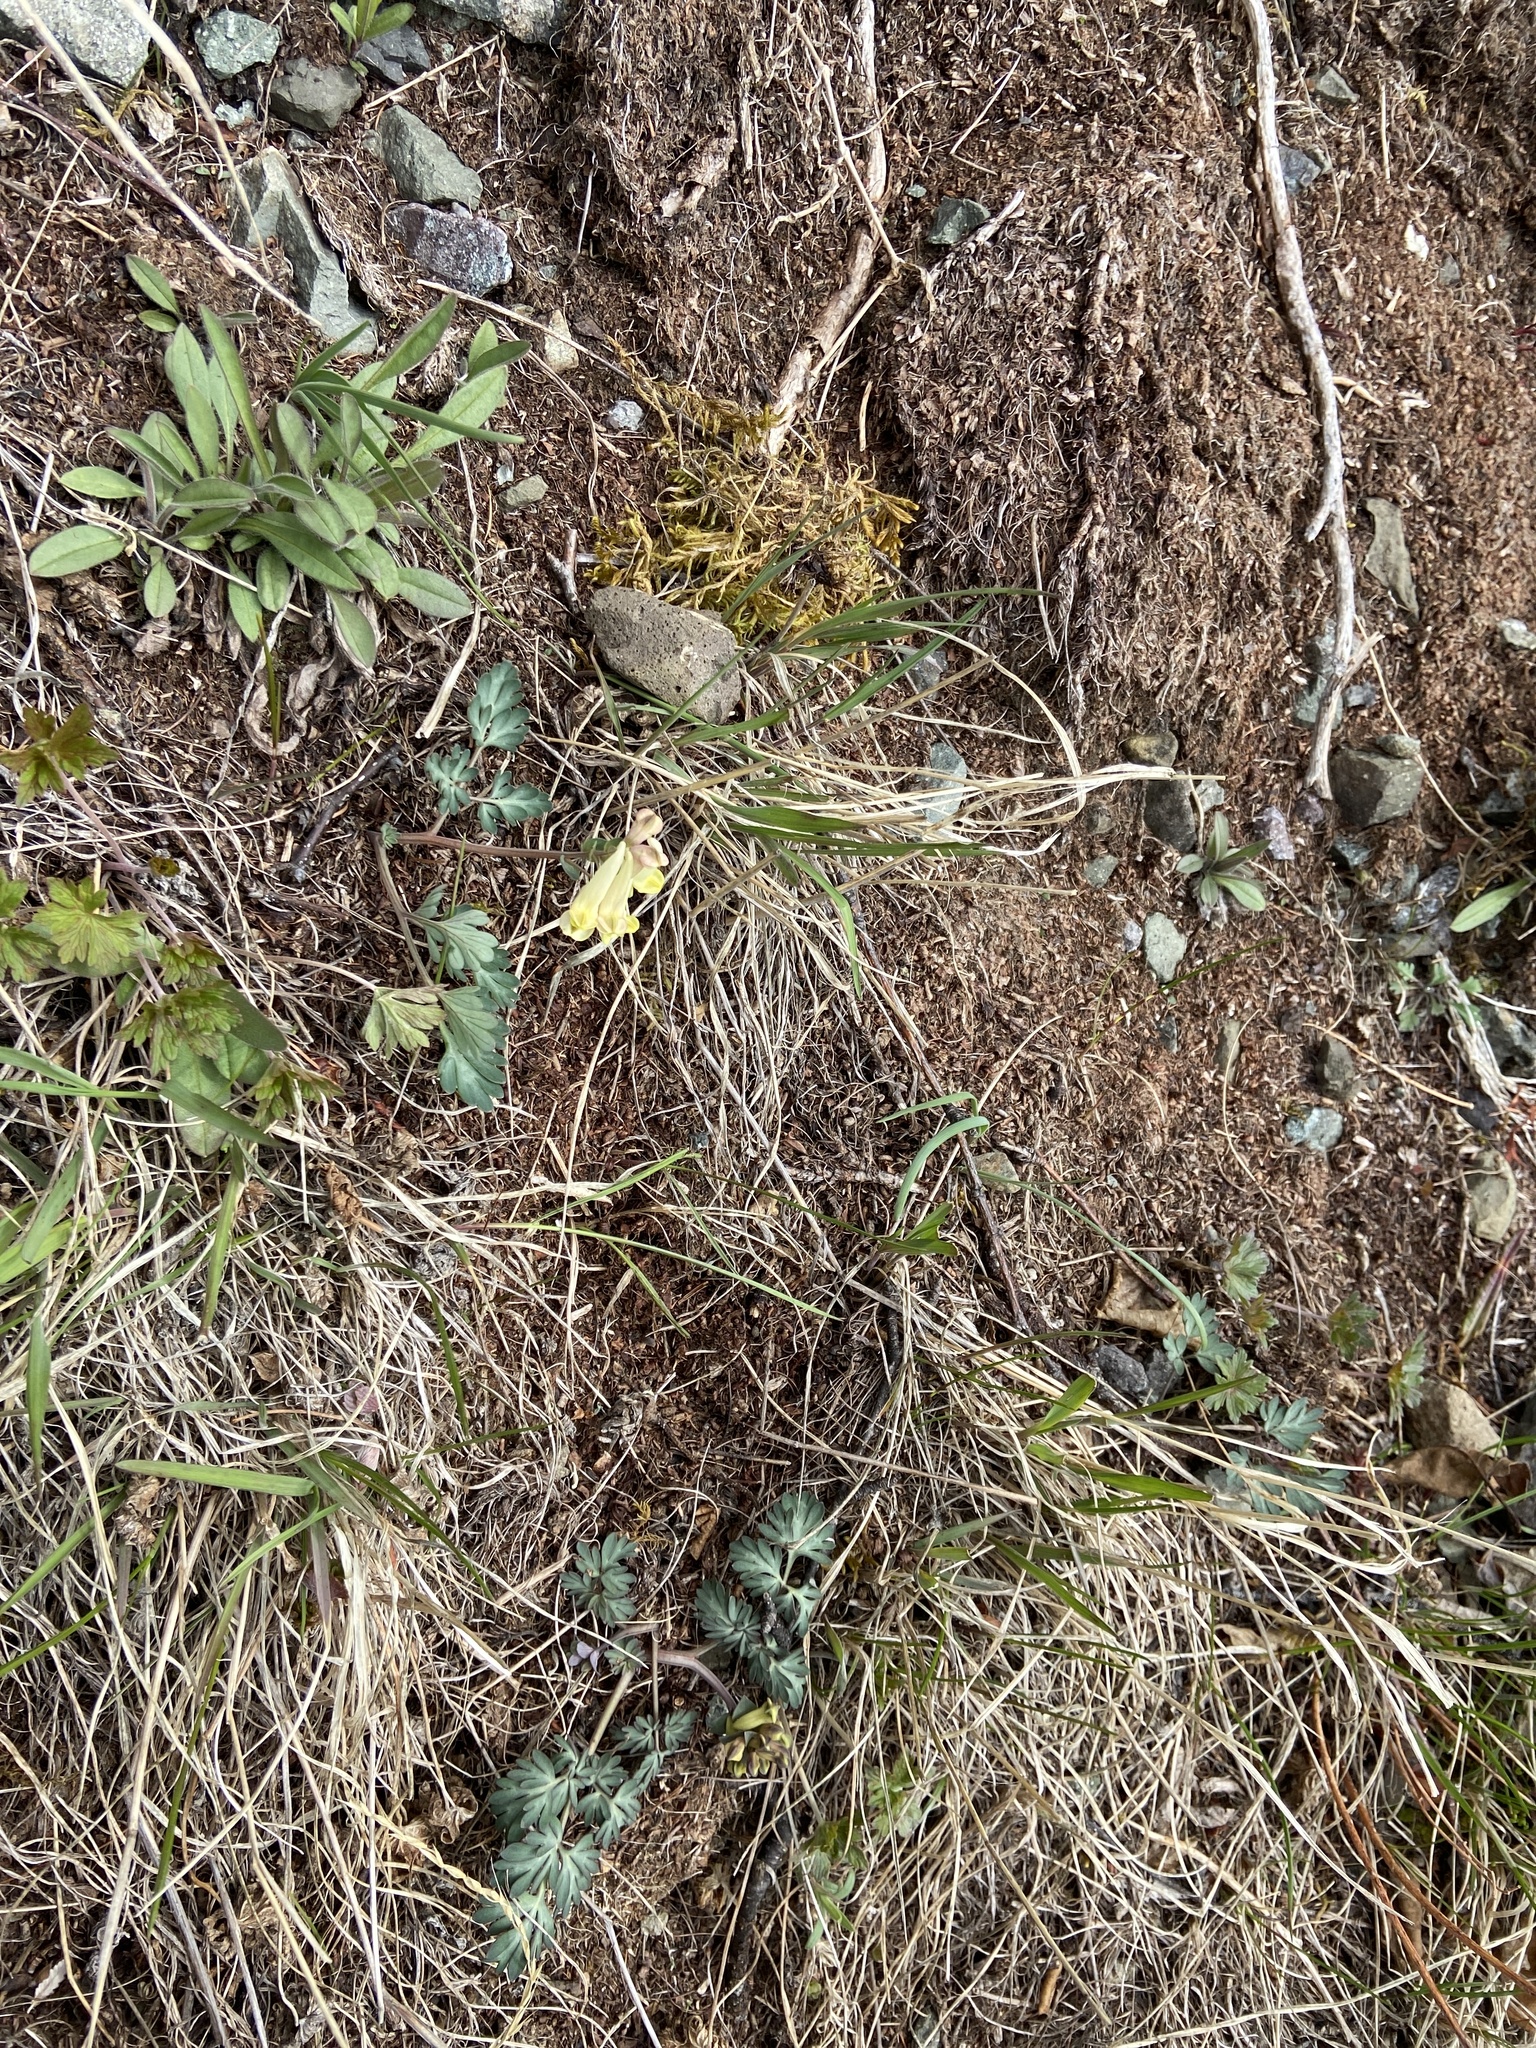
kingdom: Plantae
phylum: Tracheophyta
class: Magnoliopsida
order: Ranunculales
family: Papaveraceae
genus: Corydalis
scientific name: Corydalis magadanica
